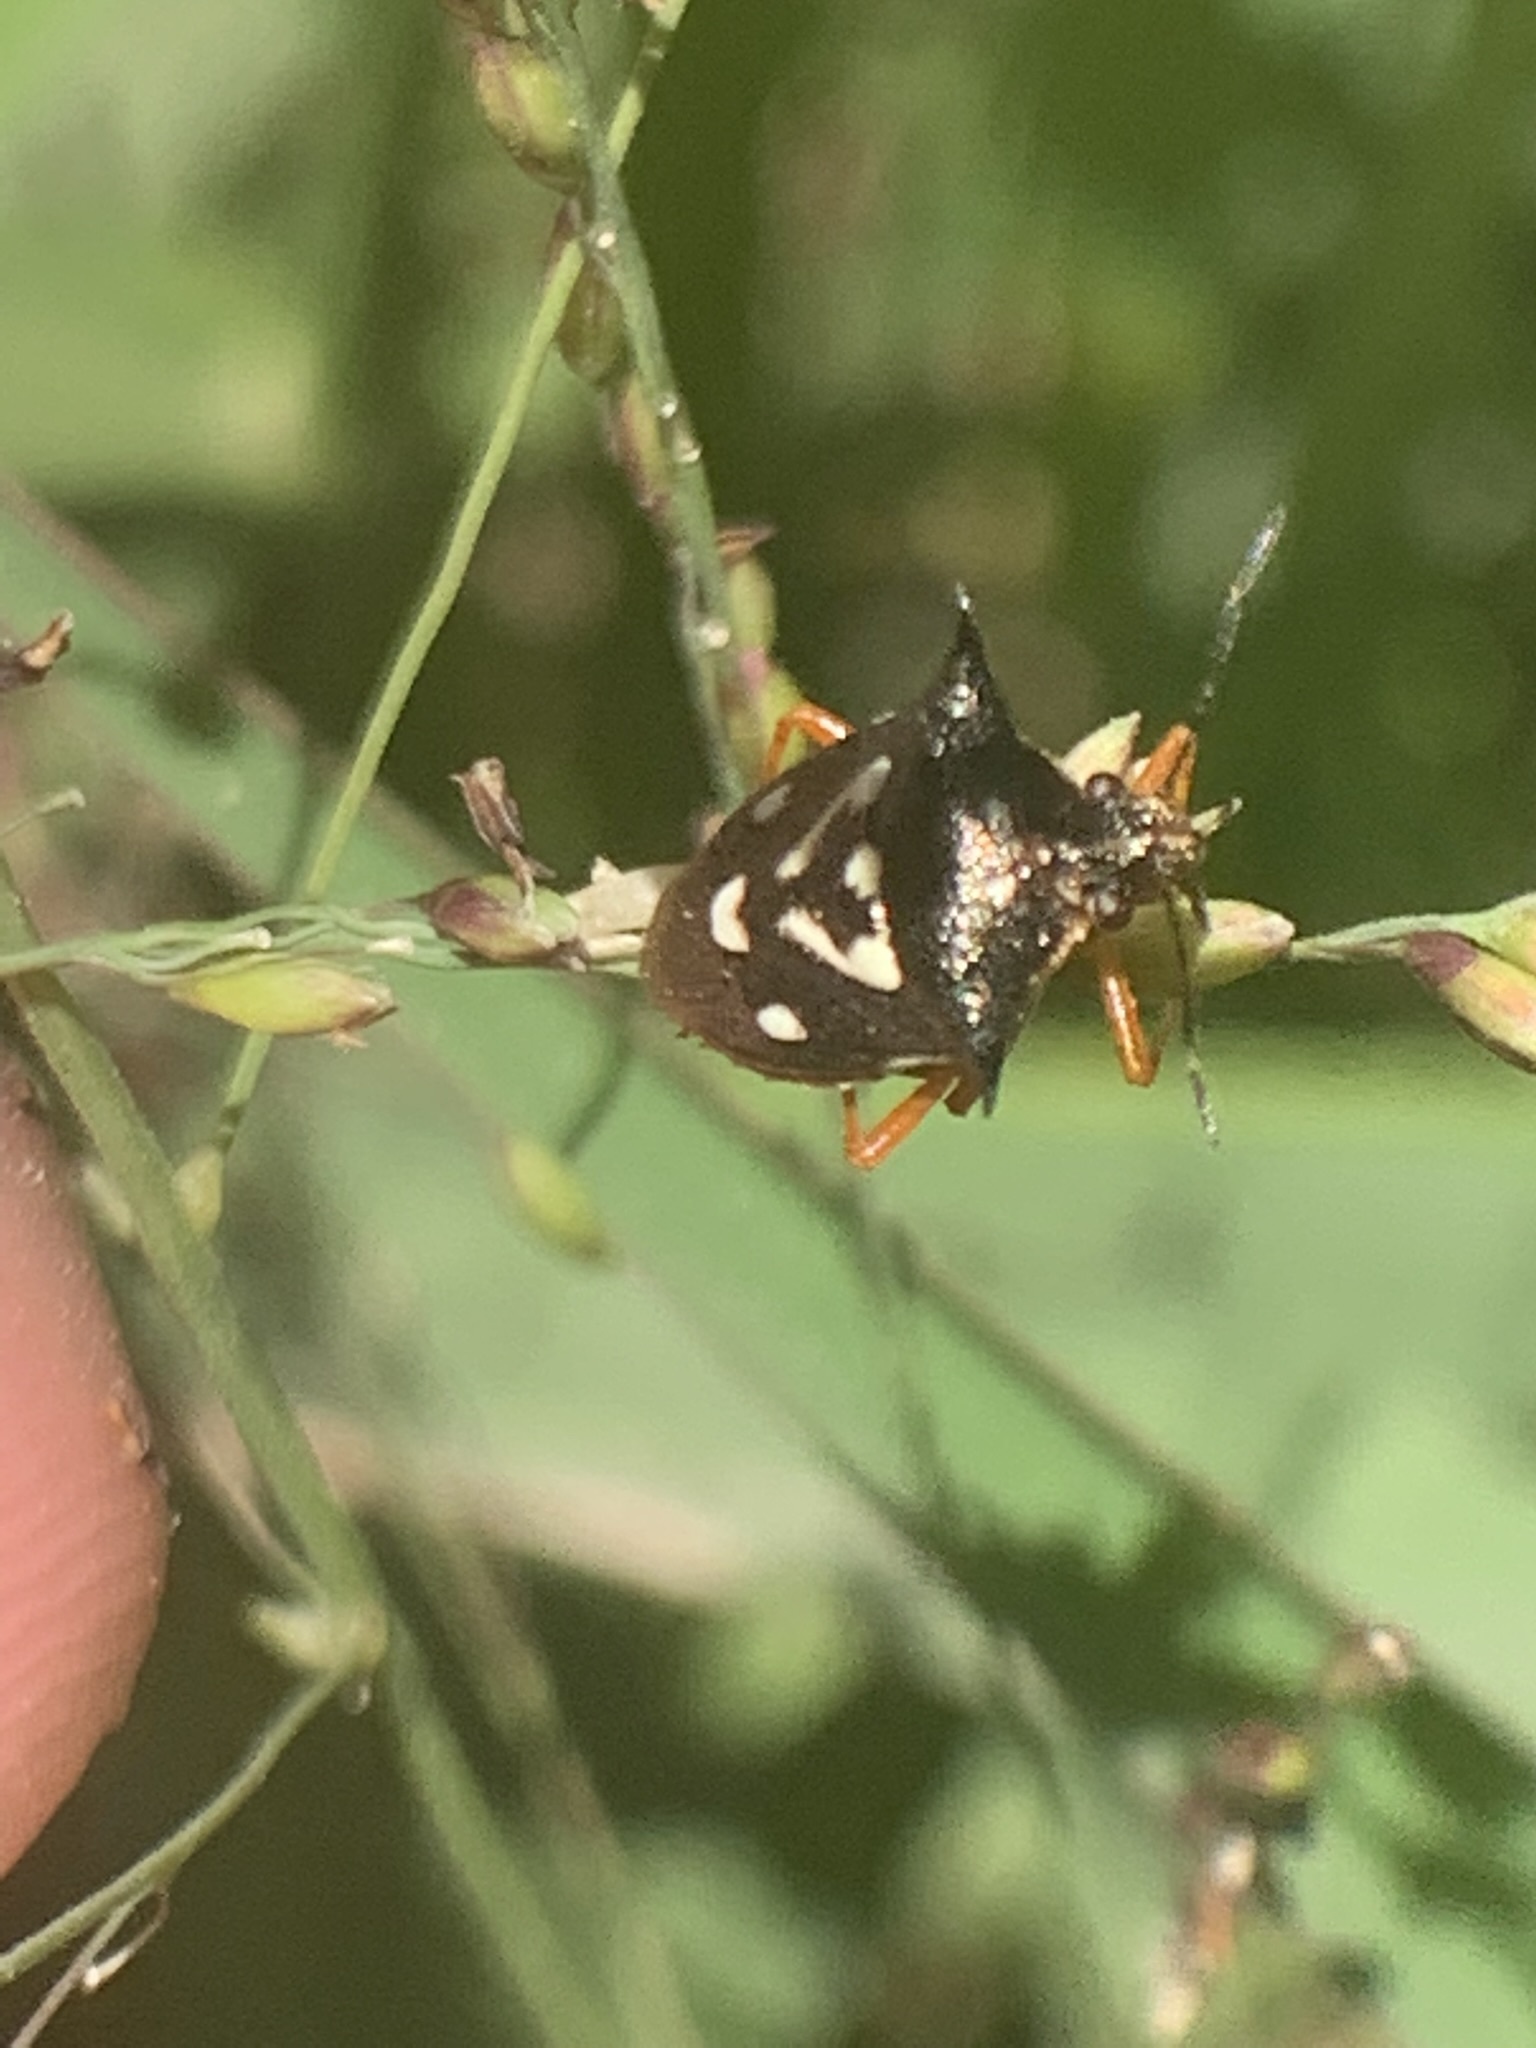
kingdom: Animalia
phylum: Arthropoda
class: Insecta
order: Hemiptera
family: Pentatomidae
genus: Mormidea
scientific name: Mormidea v-luteum
